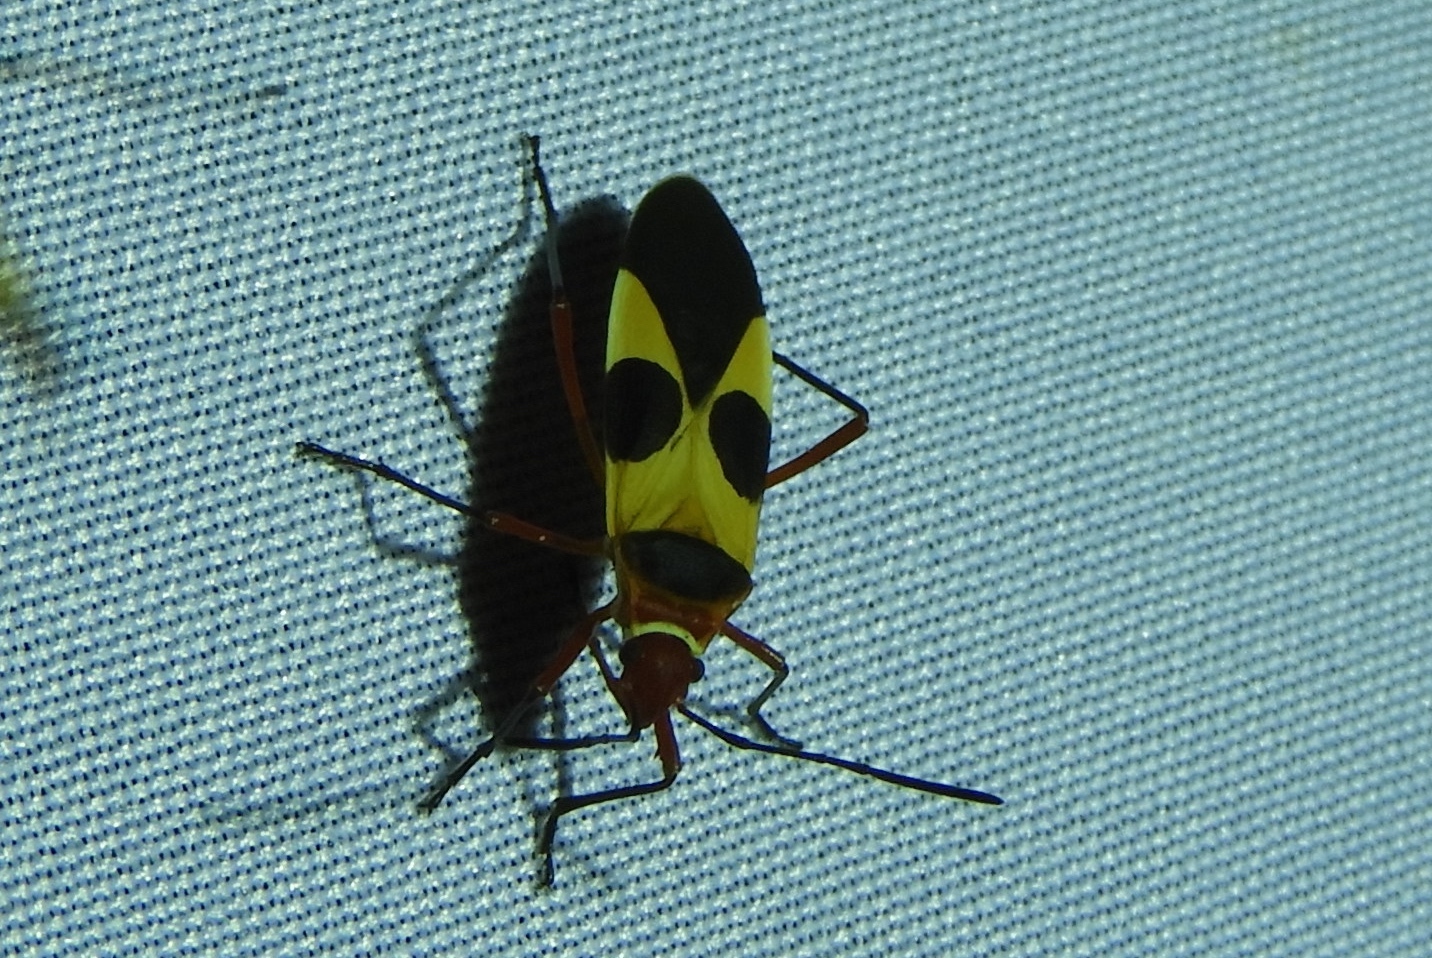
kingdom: Animalia
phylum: Arthropoda
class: Insecta
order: Hemiptera
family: Pyrrhocoridae
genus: Dysdercus
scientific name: Dysdercus
